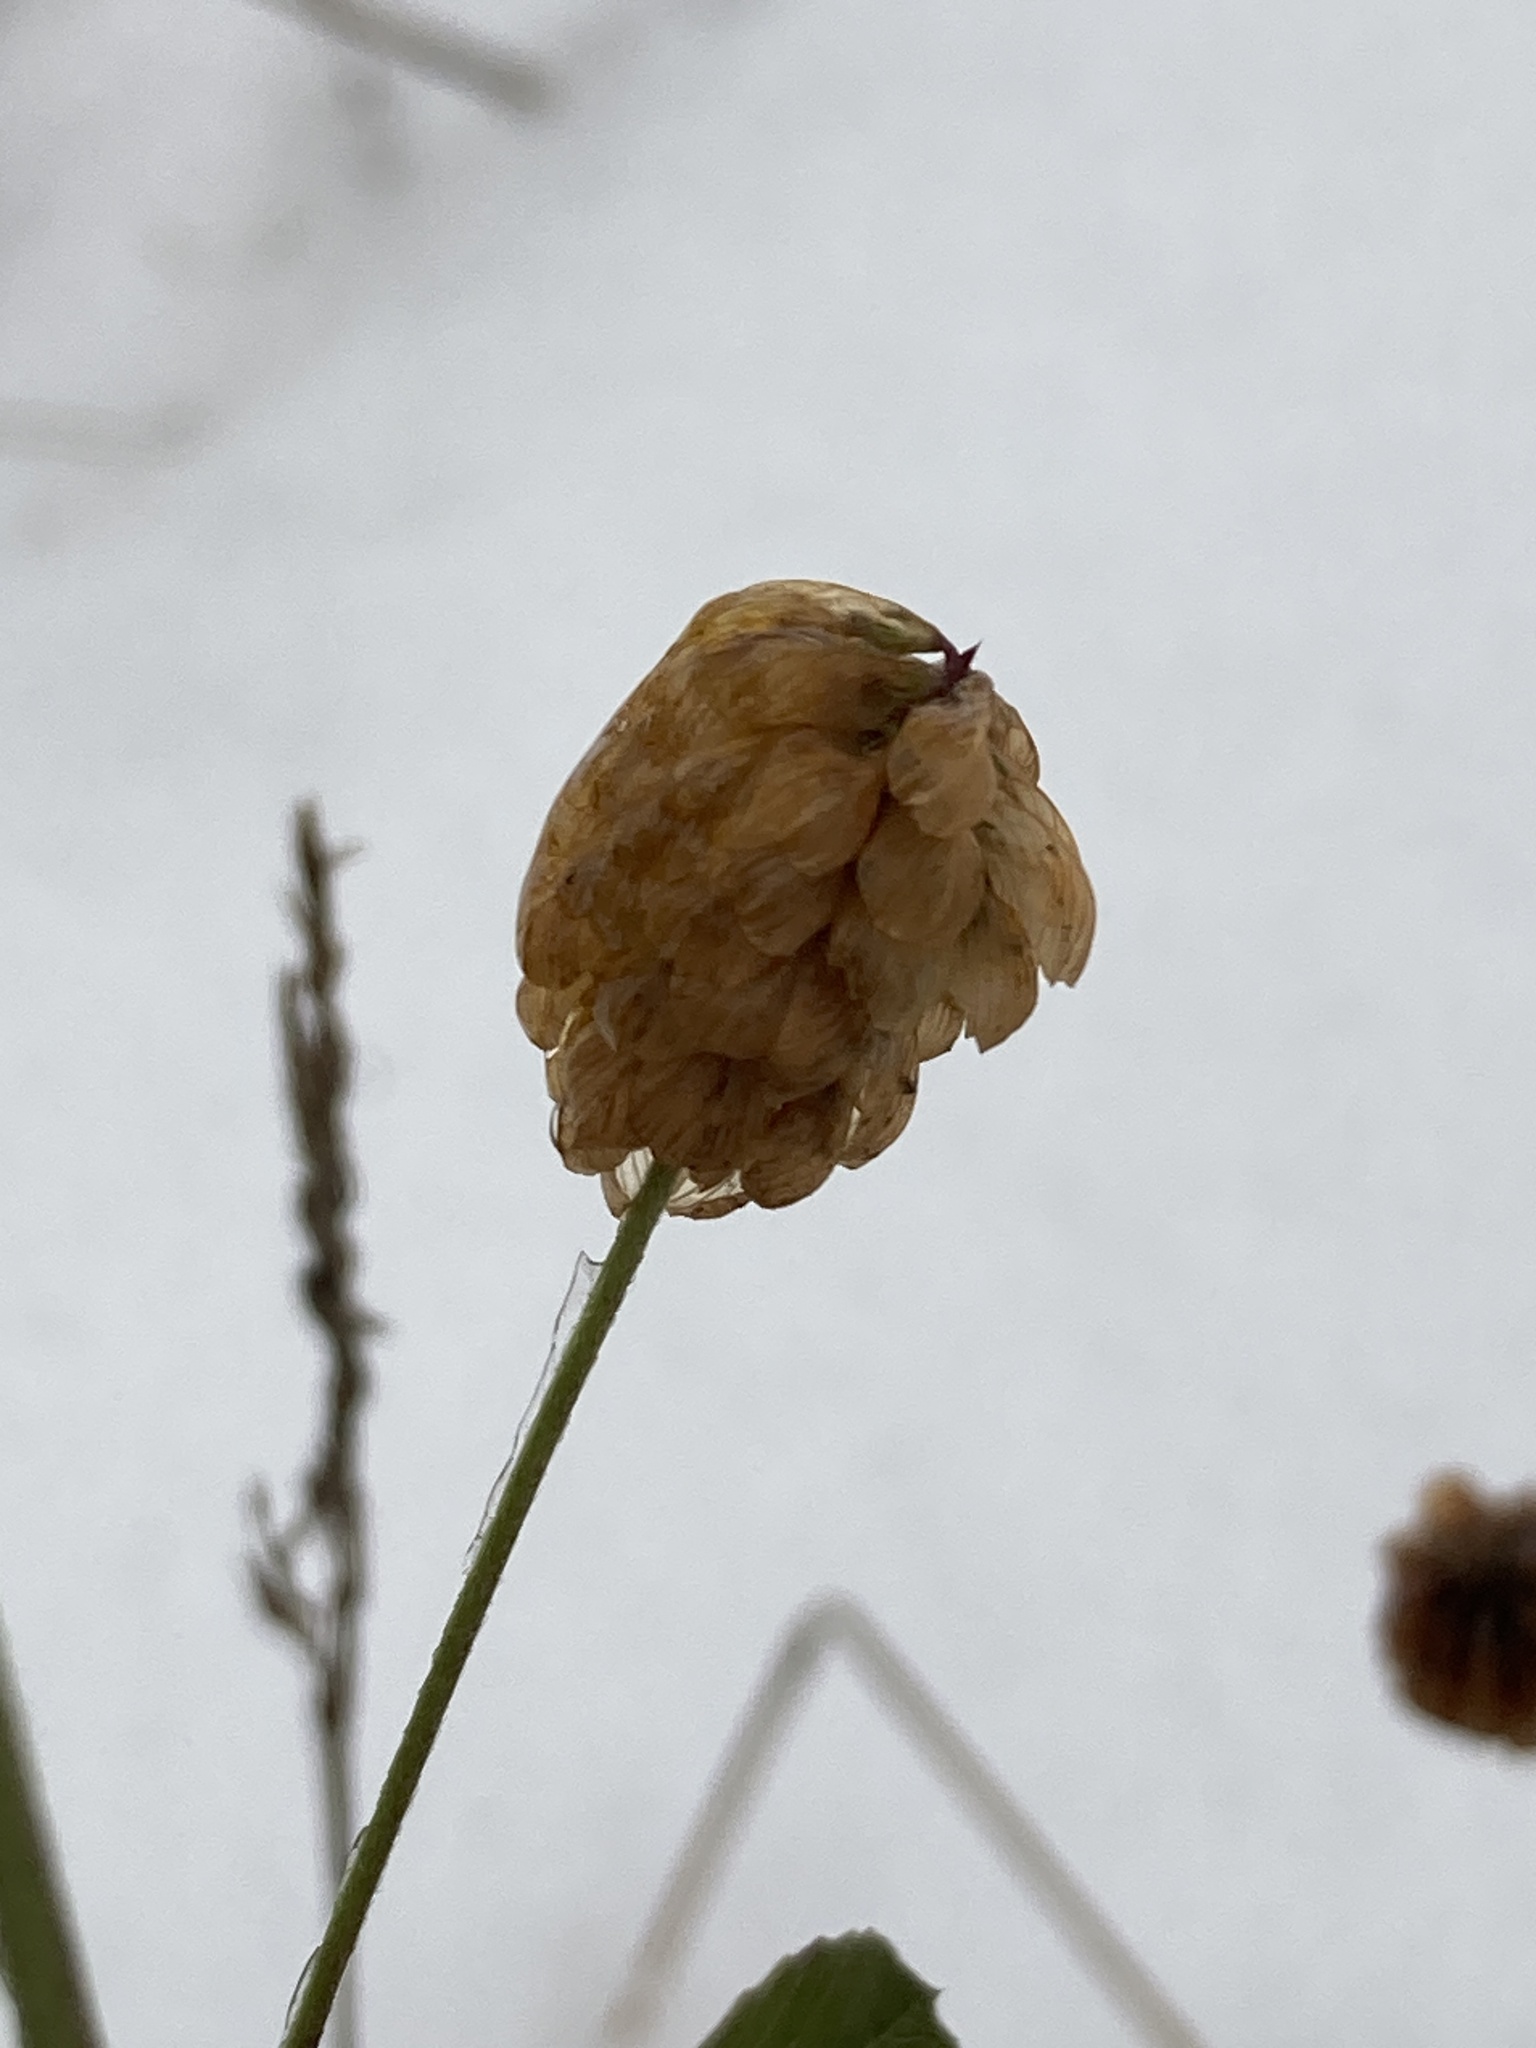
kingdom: Plantae
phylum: Tracheophyta
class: Magnoliopsida
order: Fabales
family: Fabaceae
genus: Trifolium
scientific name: Trifolium aureum
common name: Golden clover
